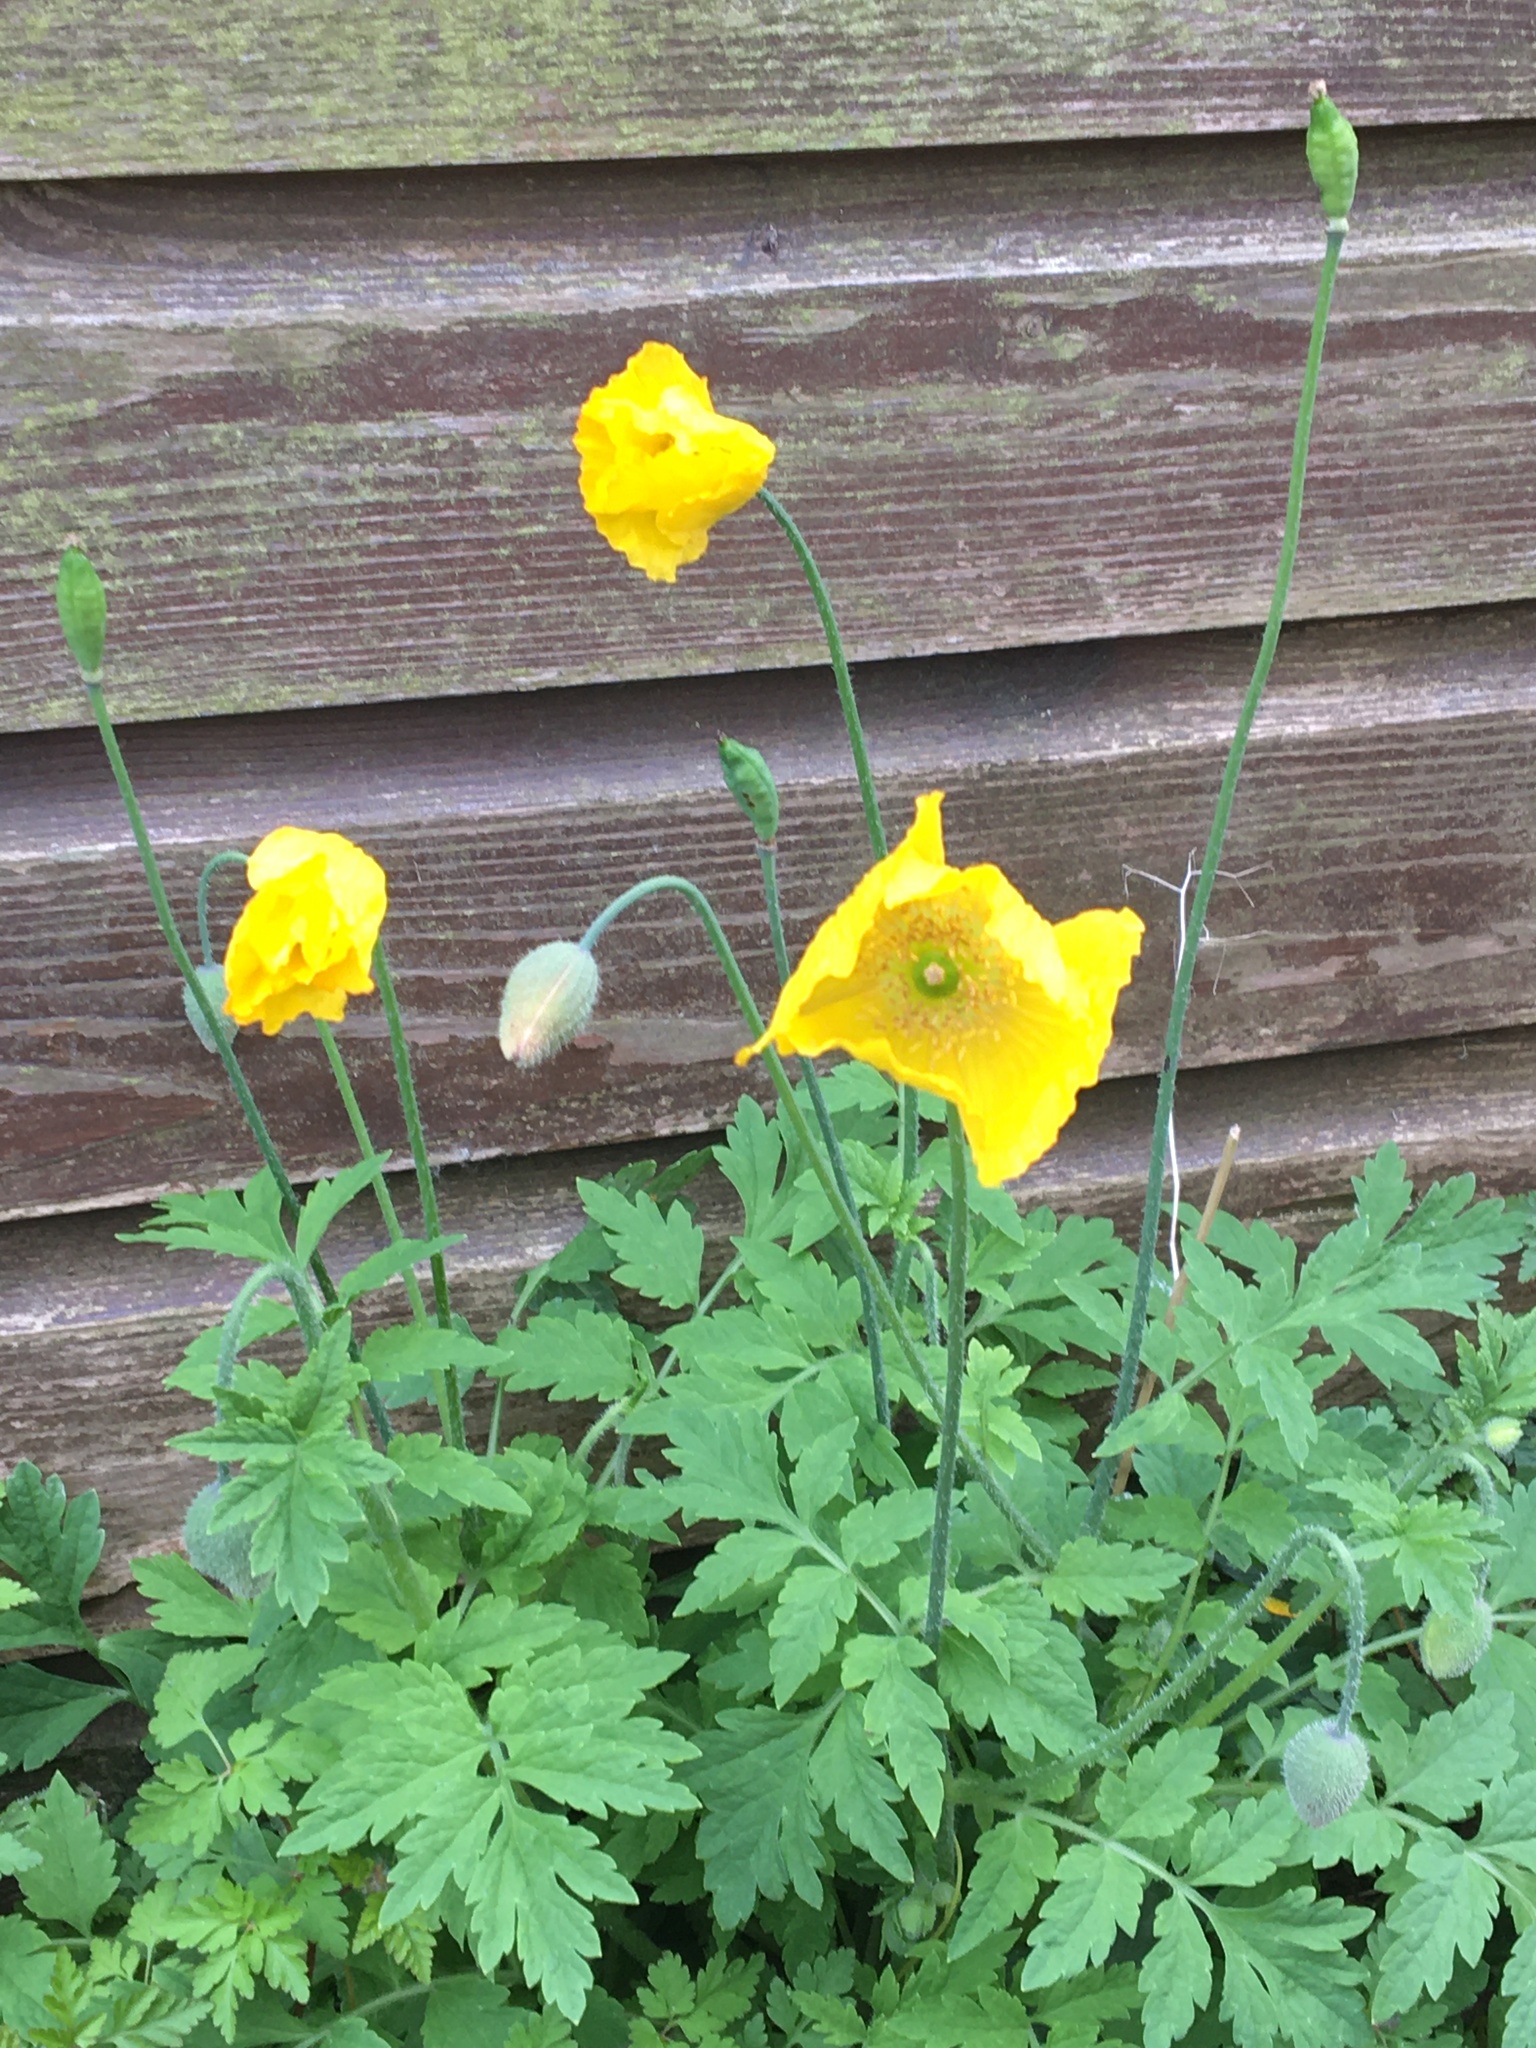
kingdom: Plantae
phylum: Tracheophyta
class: Magnoliopsida
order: Ranunculales
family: Papaveraceae
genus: Papaver
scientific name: Papaver cambricum
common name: Poppy
